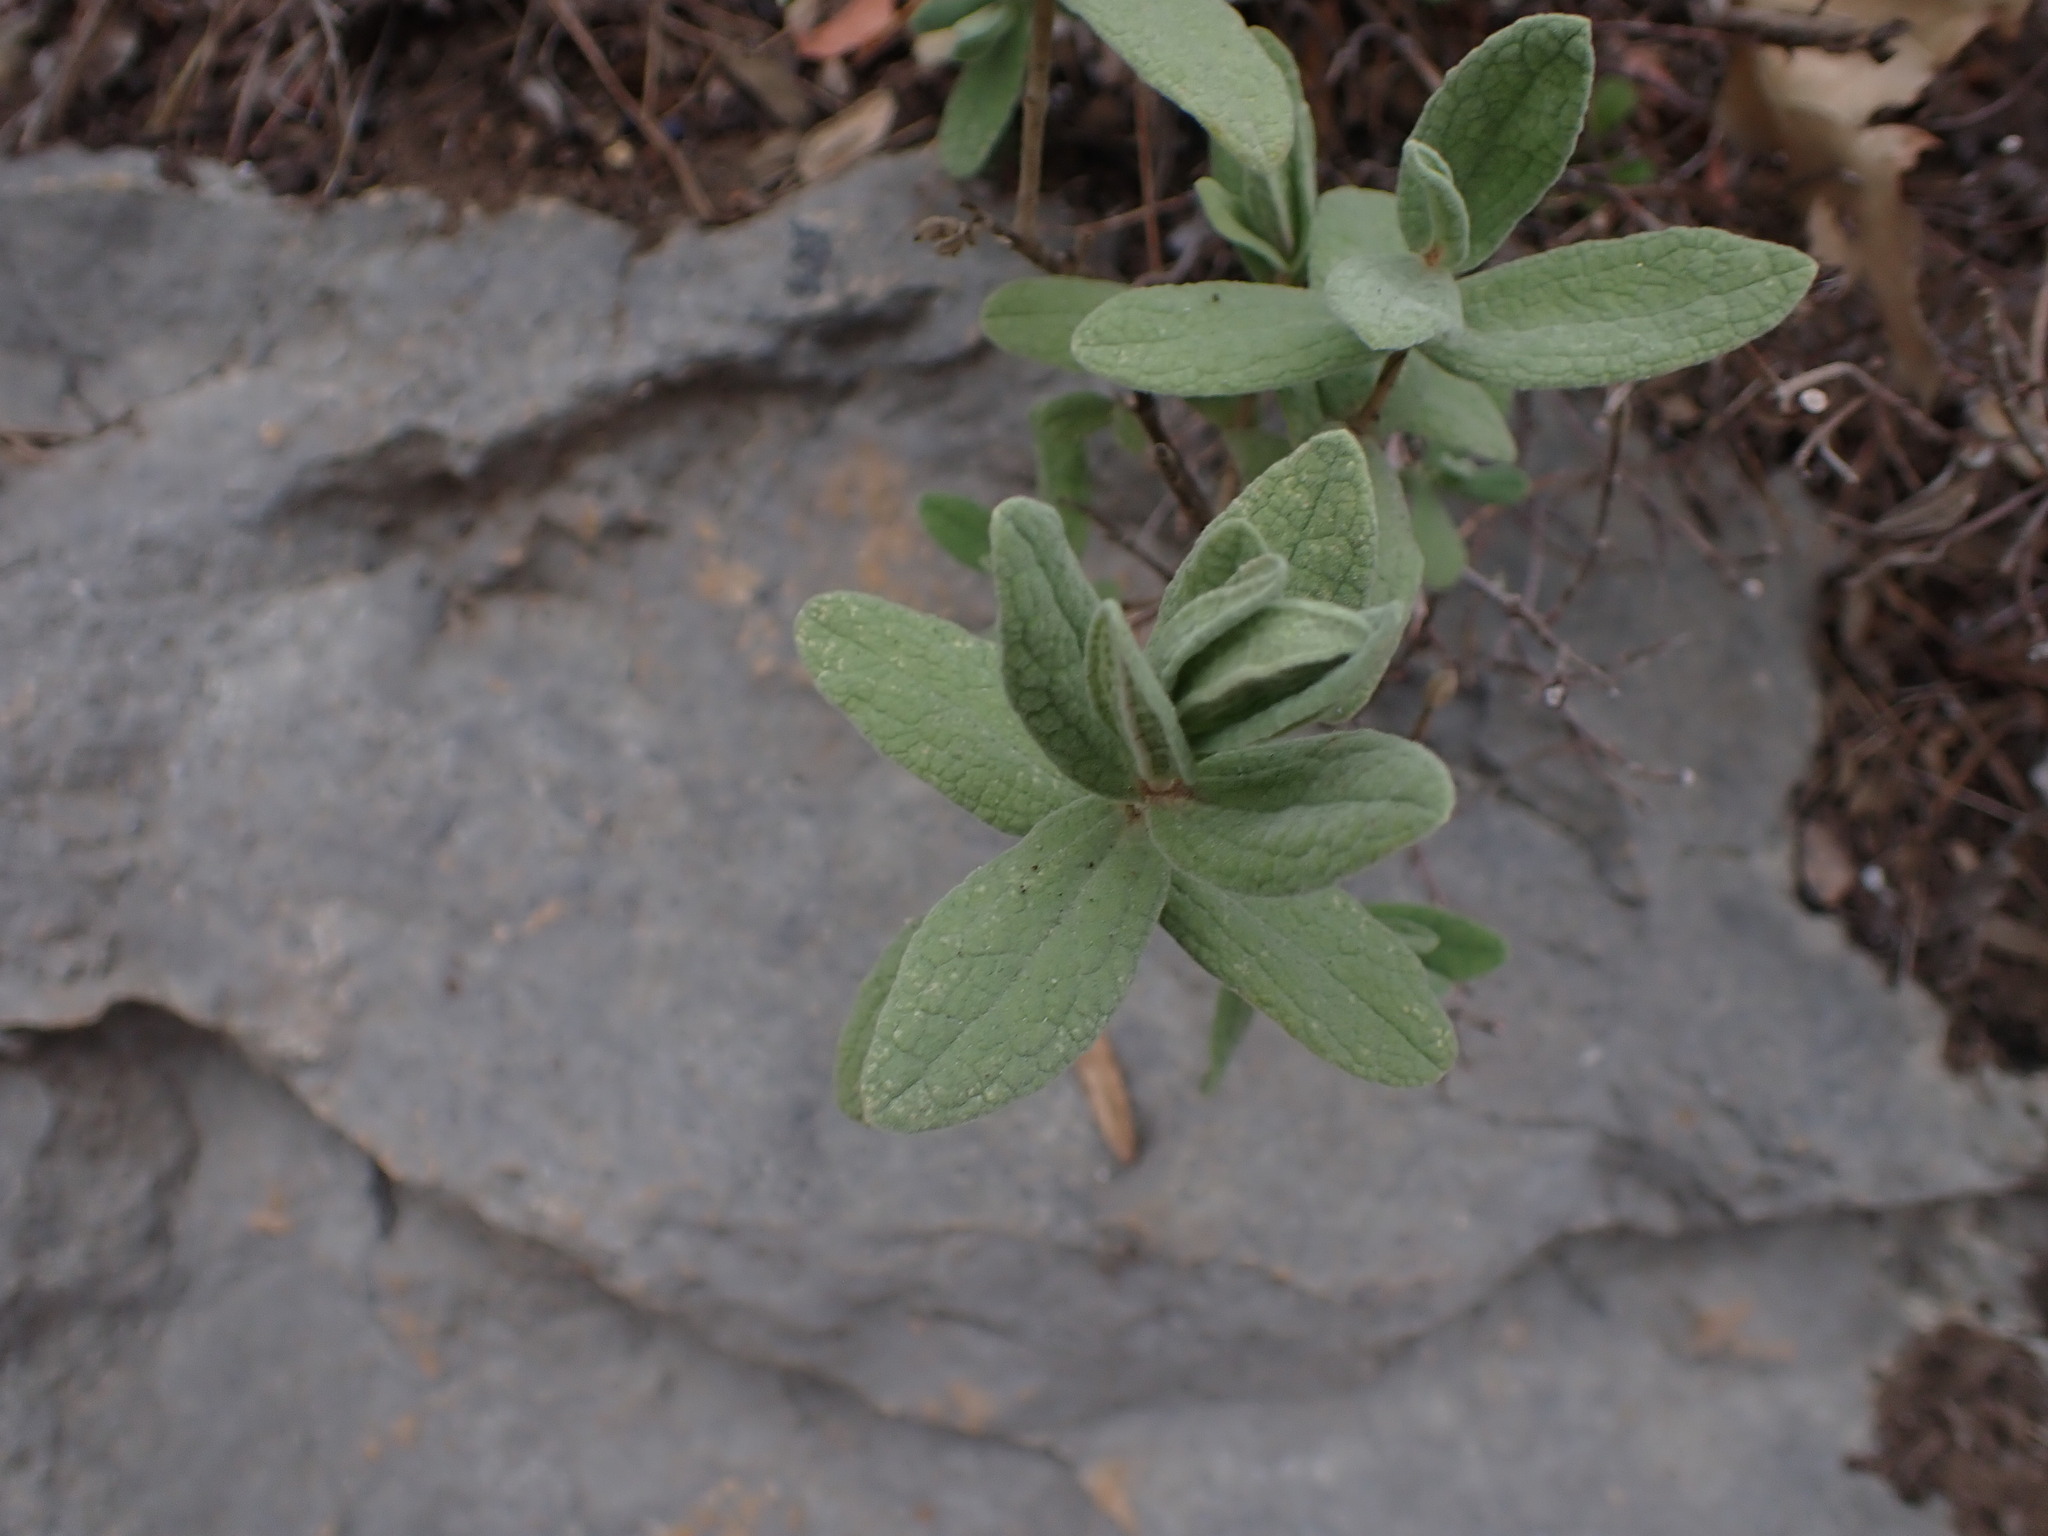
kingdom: Plantae
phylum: Tracheophyta
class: Magnoliopsida
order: Malvales
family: Cistaceae
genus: Cistus
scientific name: Cistus albidus
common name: White-leaf rock-rose
